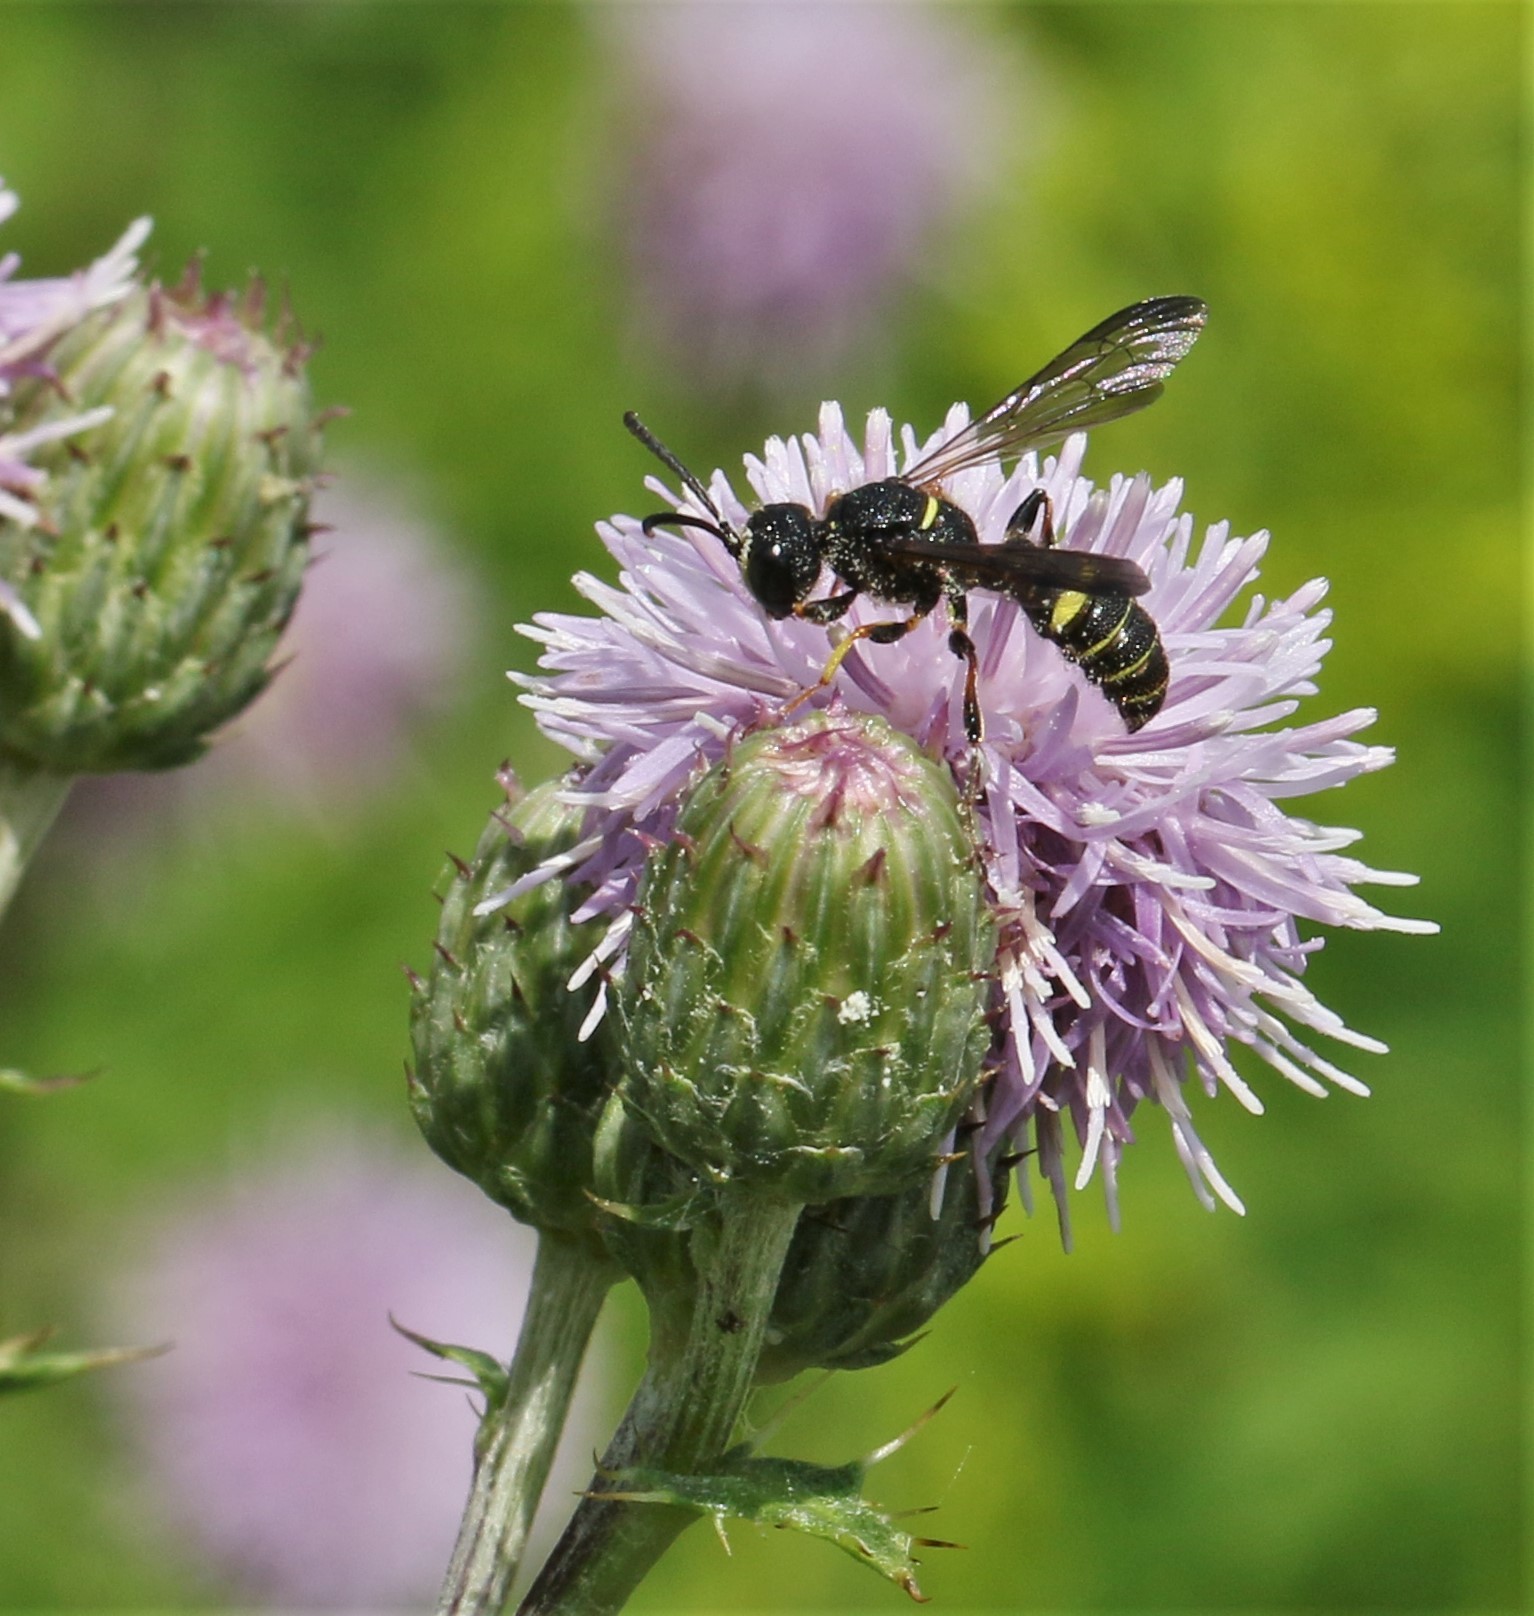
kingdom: Animalia
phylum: Arthropoda
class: Insecta
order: Hymenoptera
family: Crabronidae
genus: Cerceris
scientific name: Cerceris atramontensis
